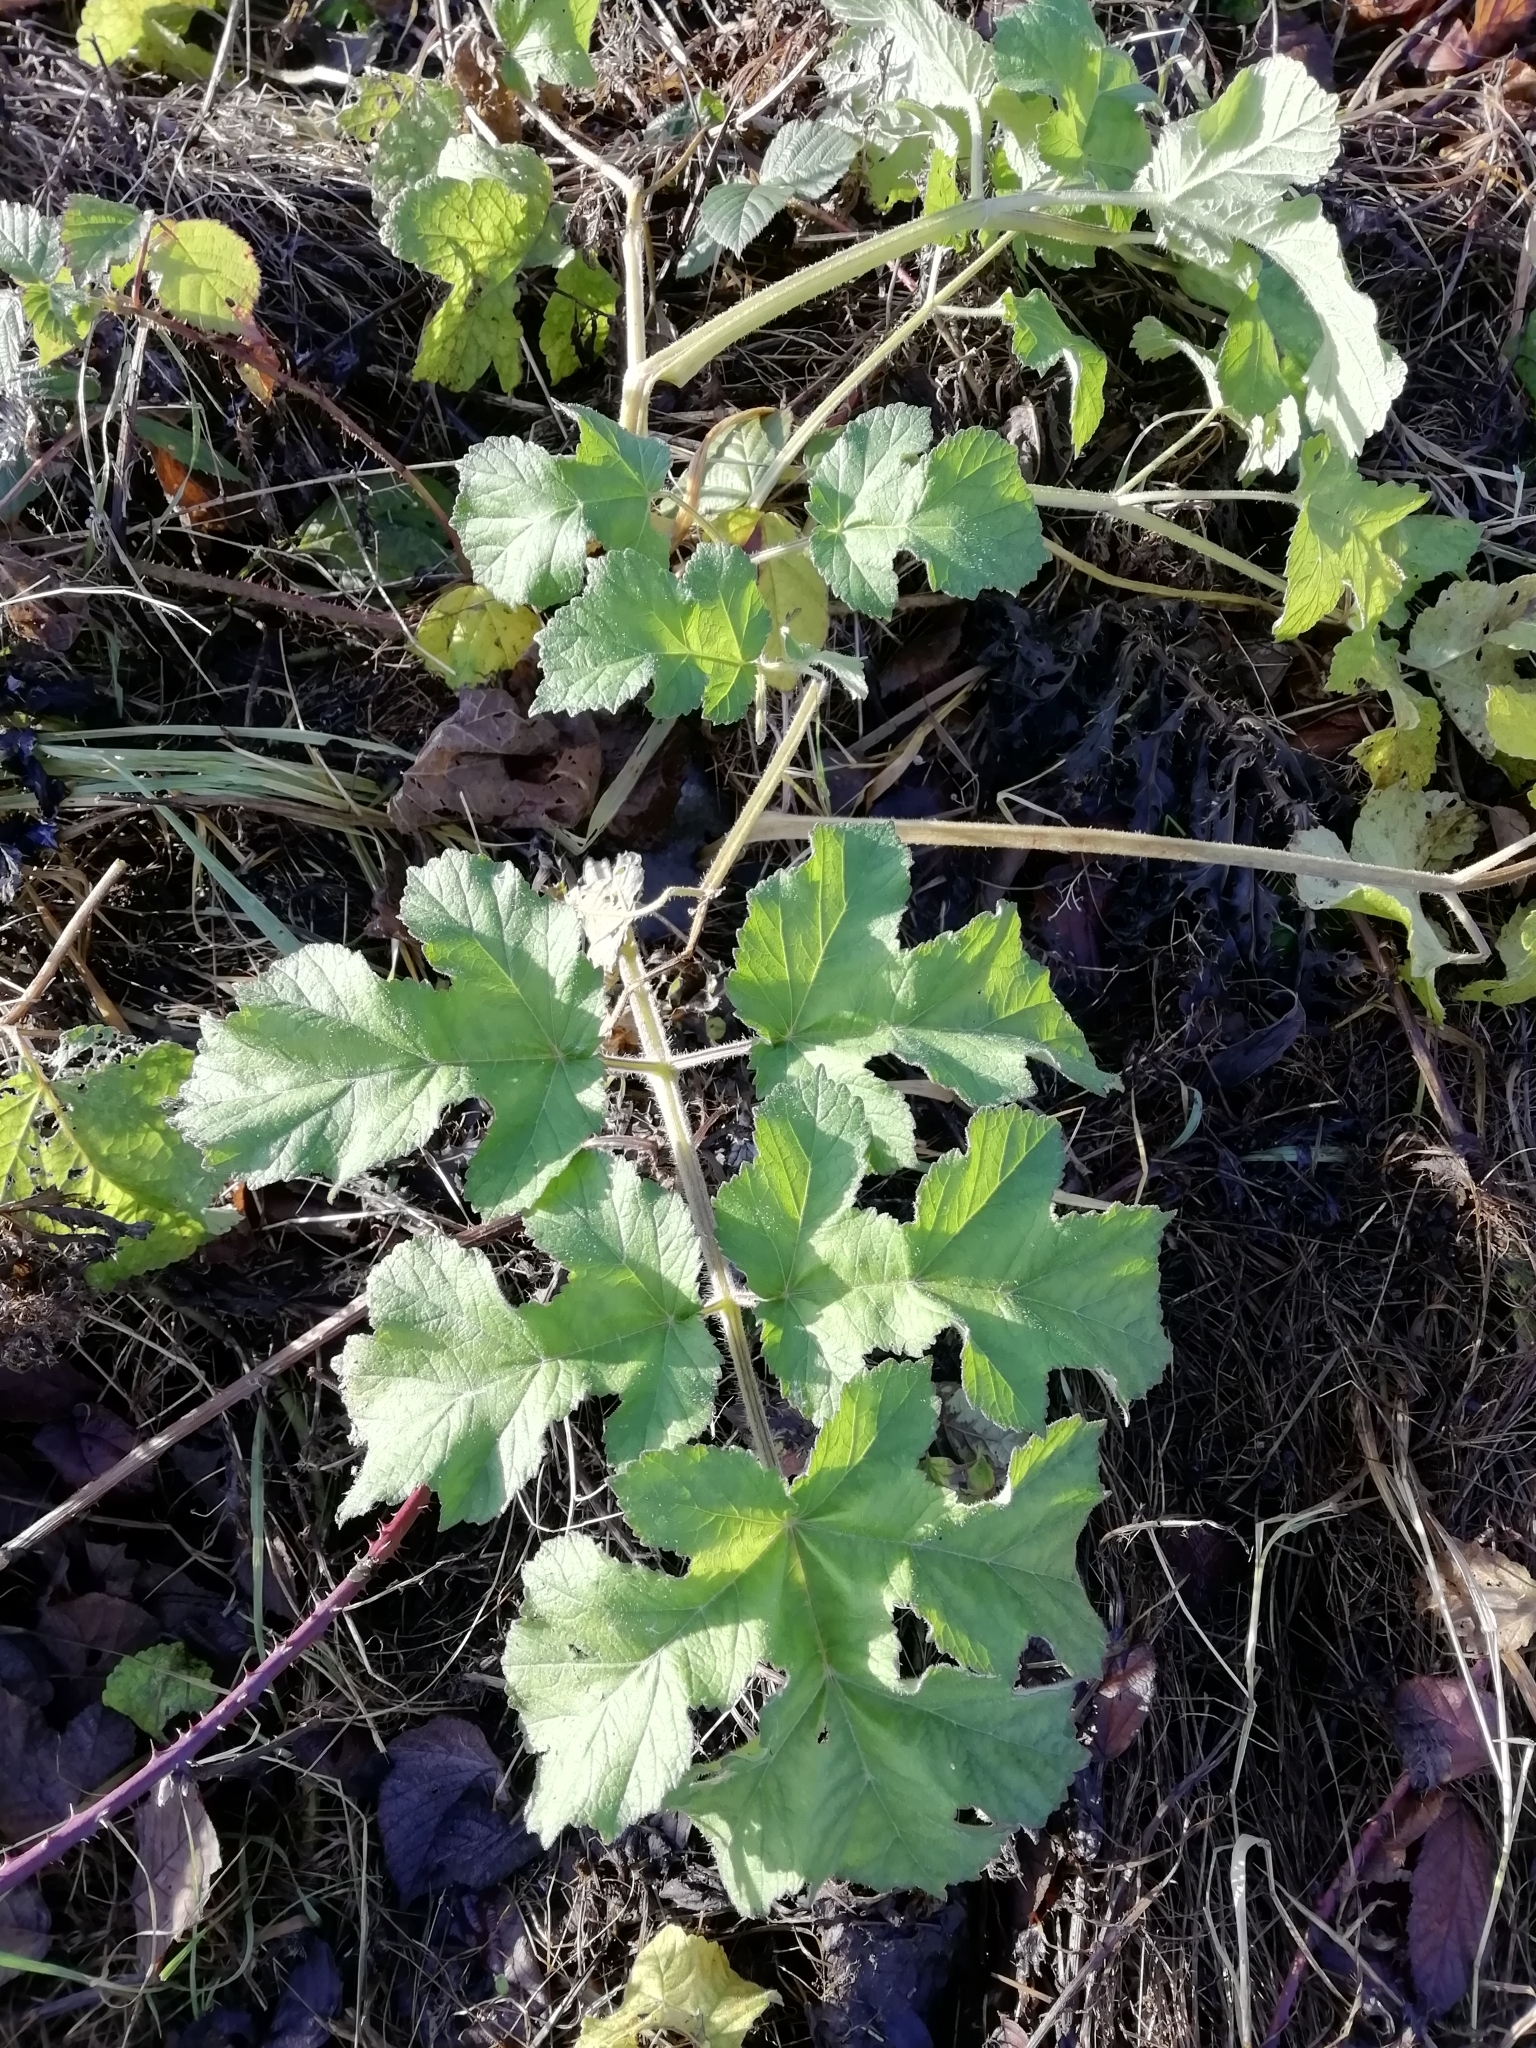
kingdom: Plantae
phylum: Tracheophyta
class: Magnoliopsida
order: Apiales
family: Apiaceae
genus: Heracleum
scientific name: Heracleum sphondylium
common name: Hogweed
